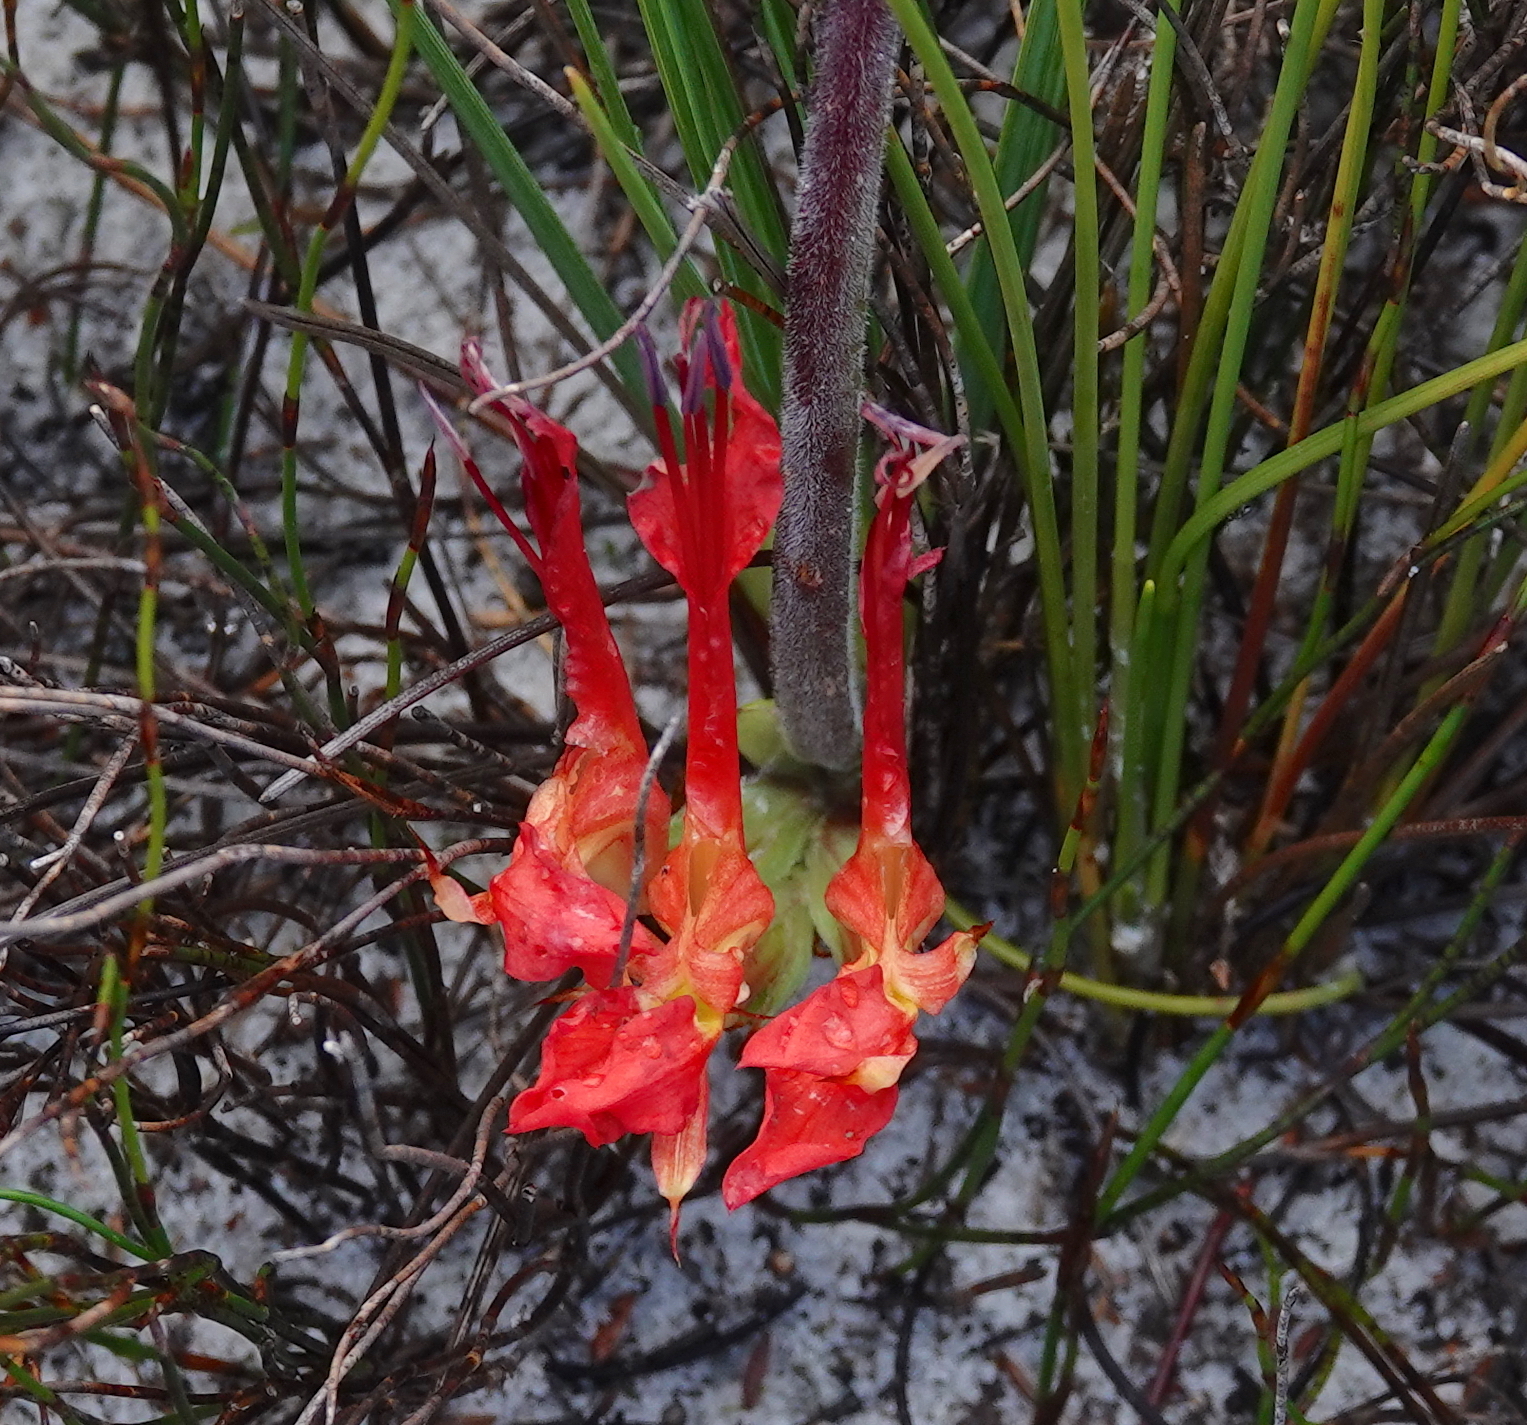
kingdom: Plantae
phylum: Tracheophyta
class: Liliopsida
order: Asparagales
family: Iridaceae
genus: Babiana
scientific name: Babiana ringens
